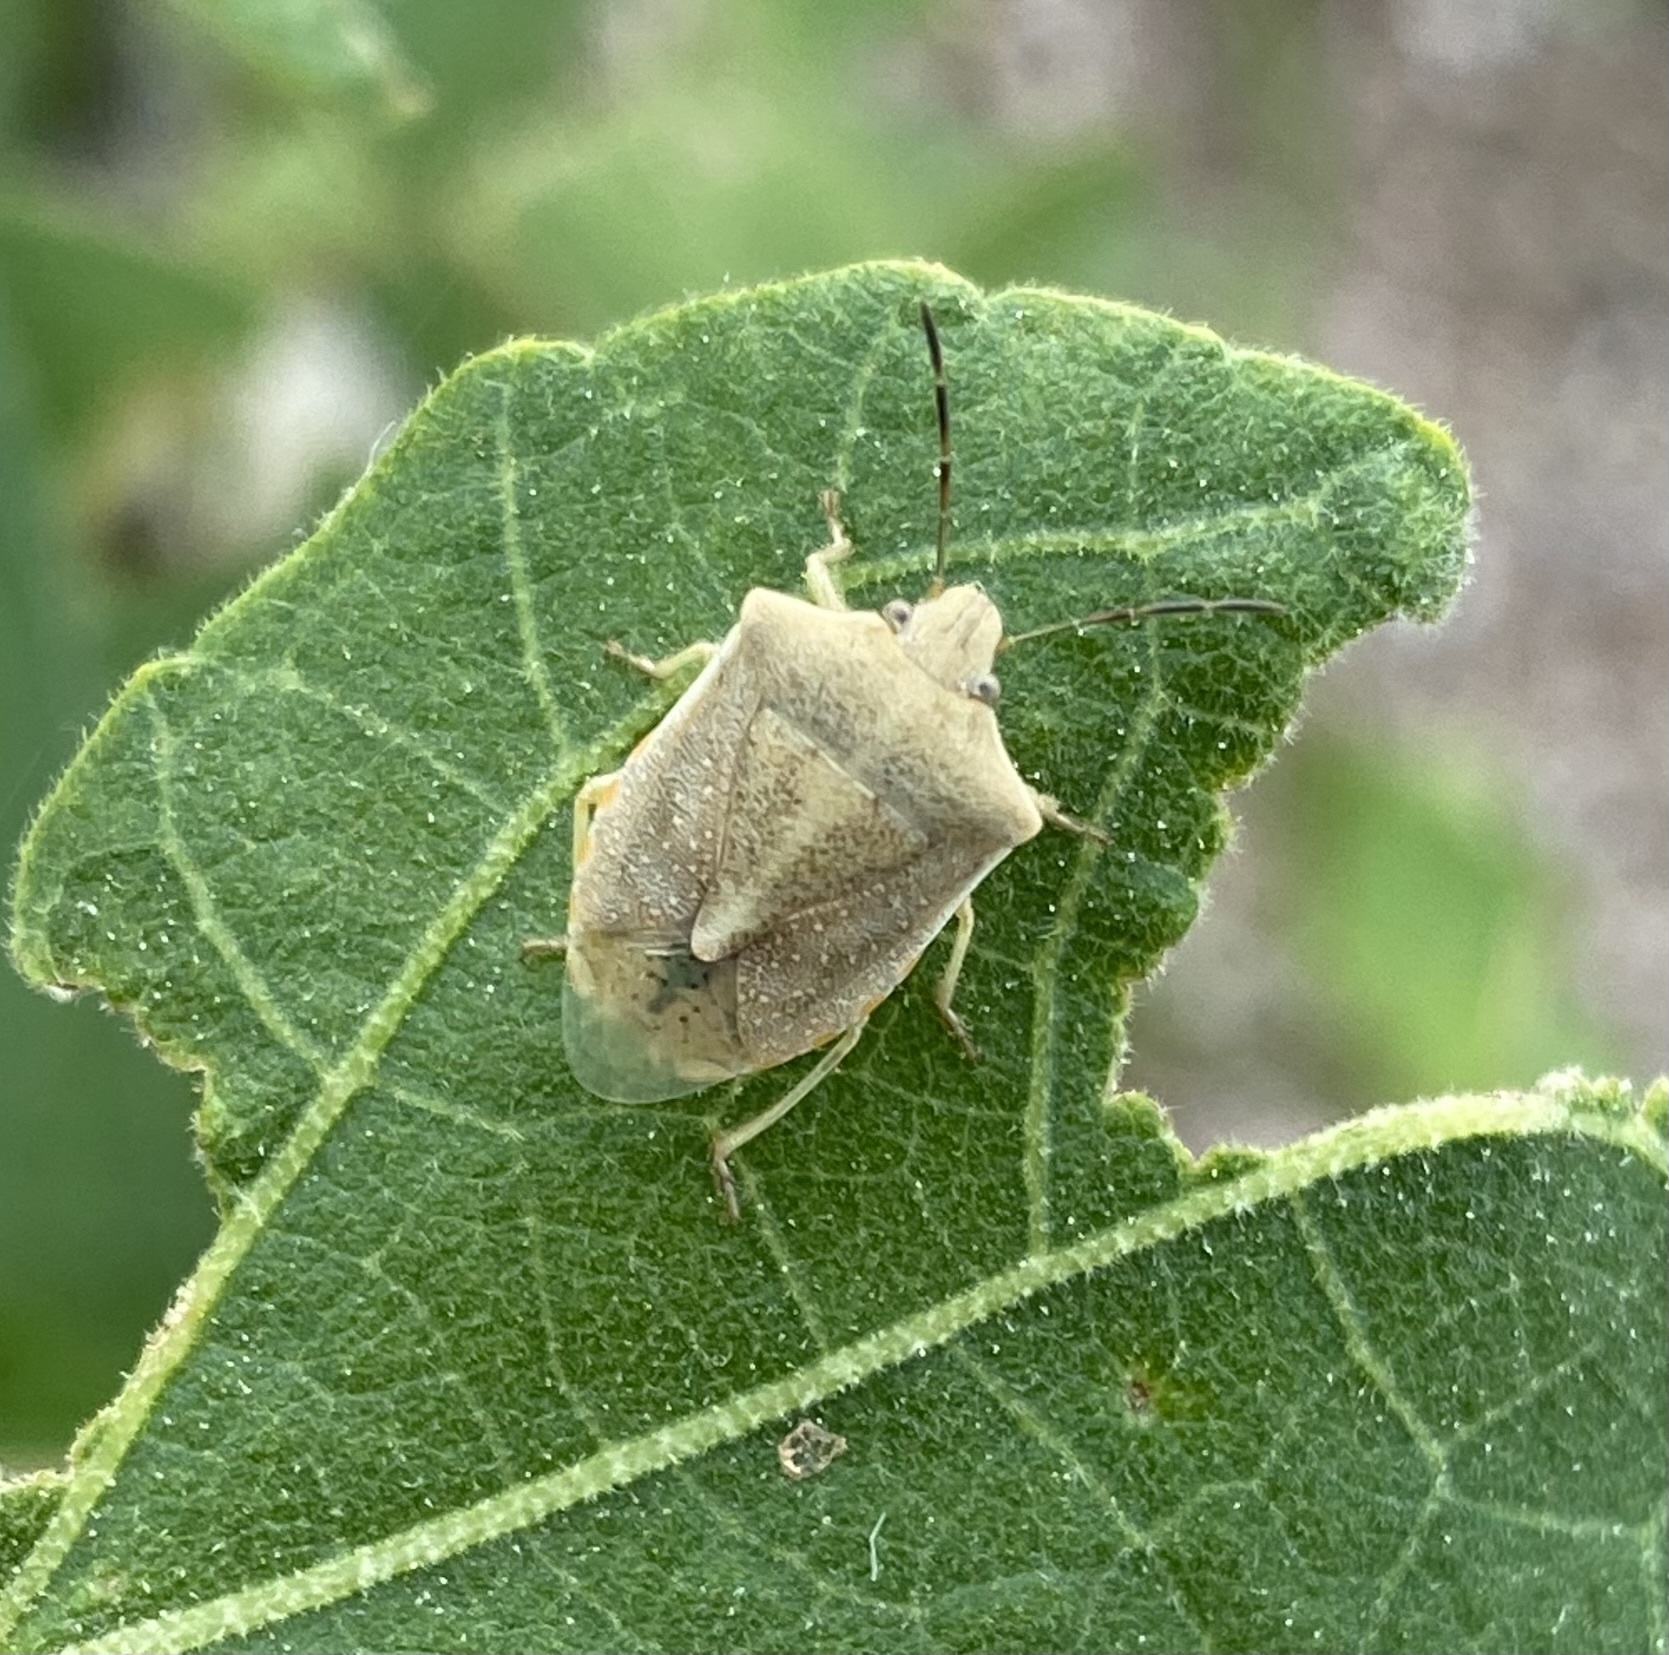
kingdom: Animalia
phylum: Arthropoda
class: Insecta
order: Hemiptera
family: Pentatomidae
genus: Thyanta
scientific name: Thyanta accerra
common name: Stink bug
